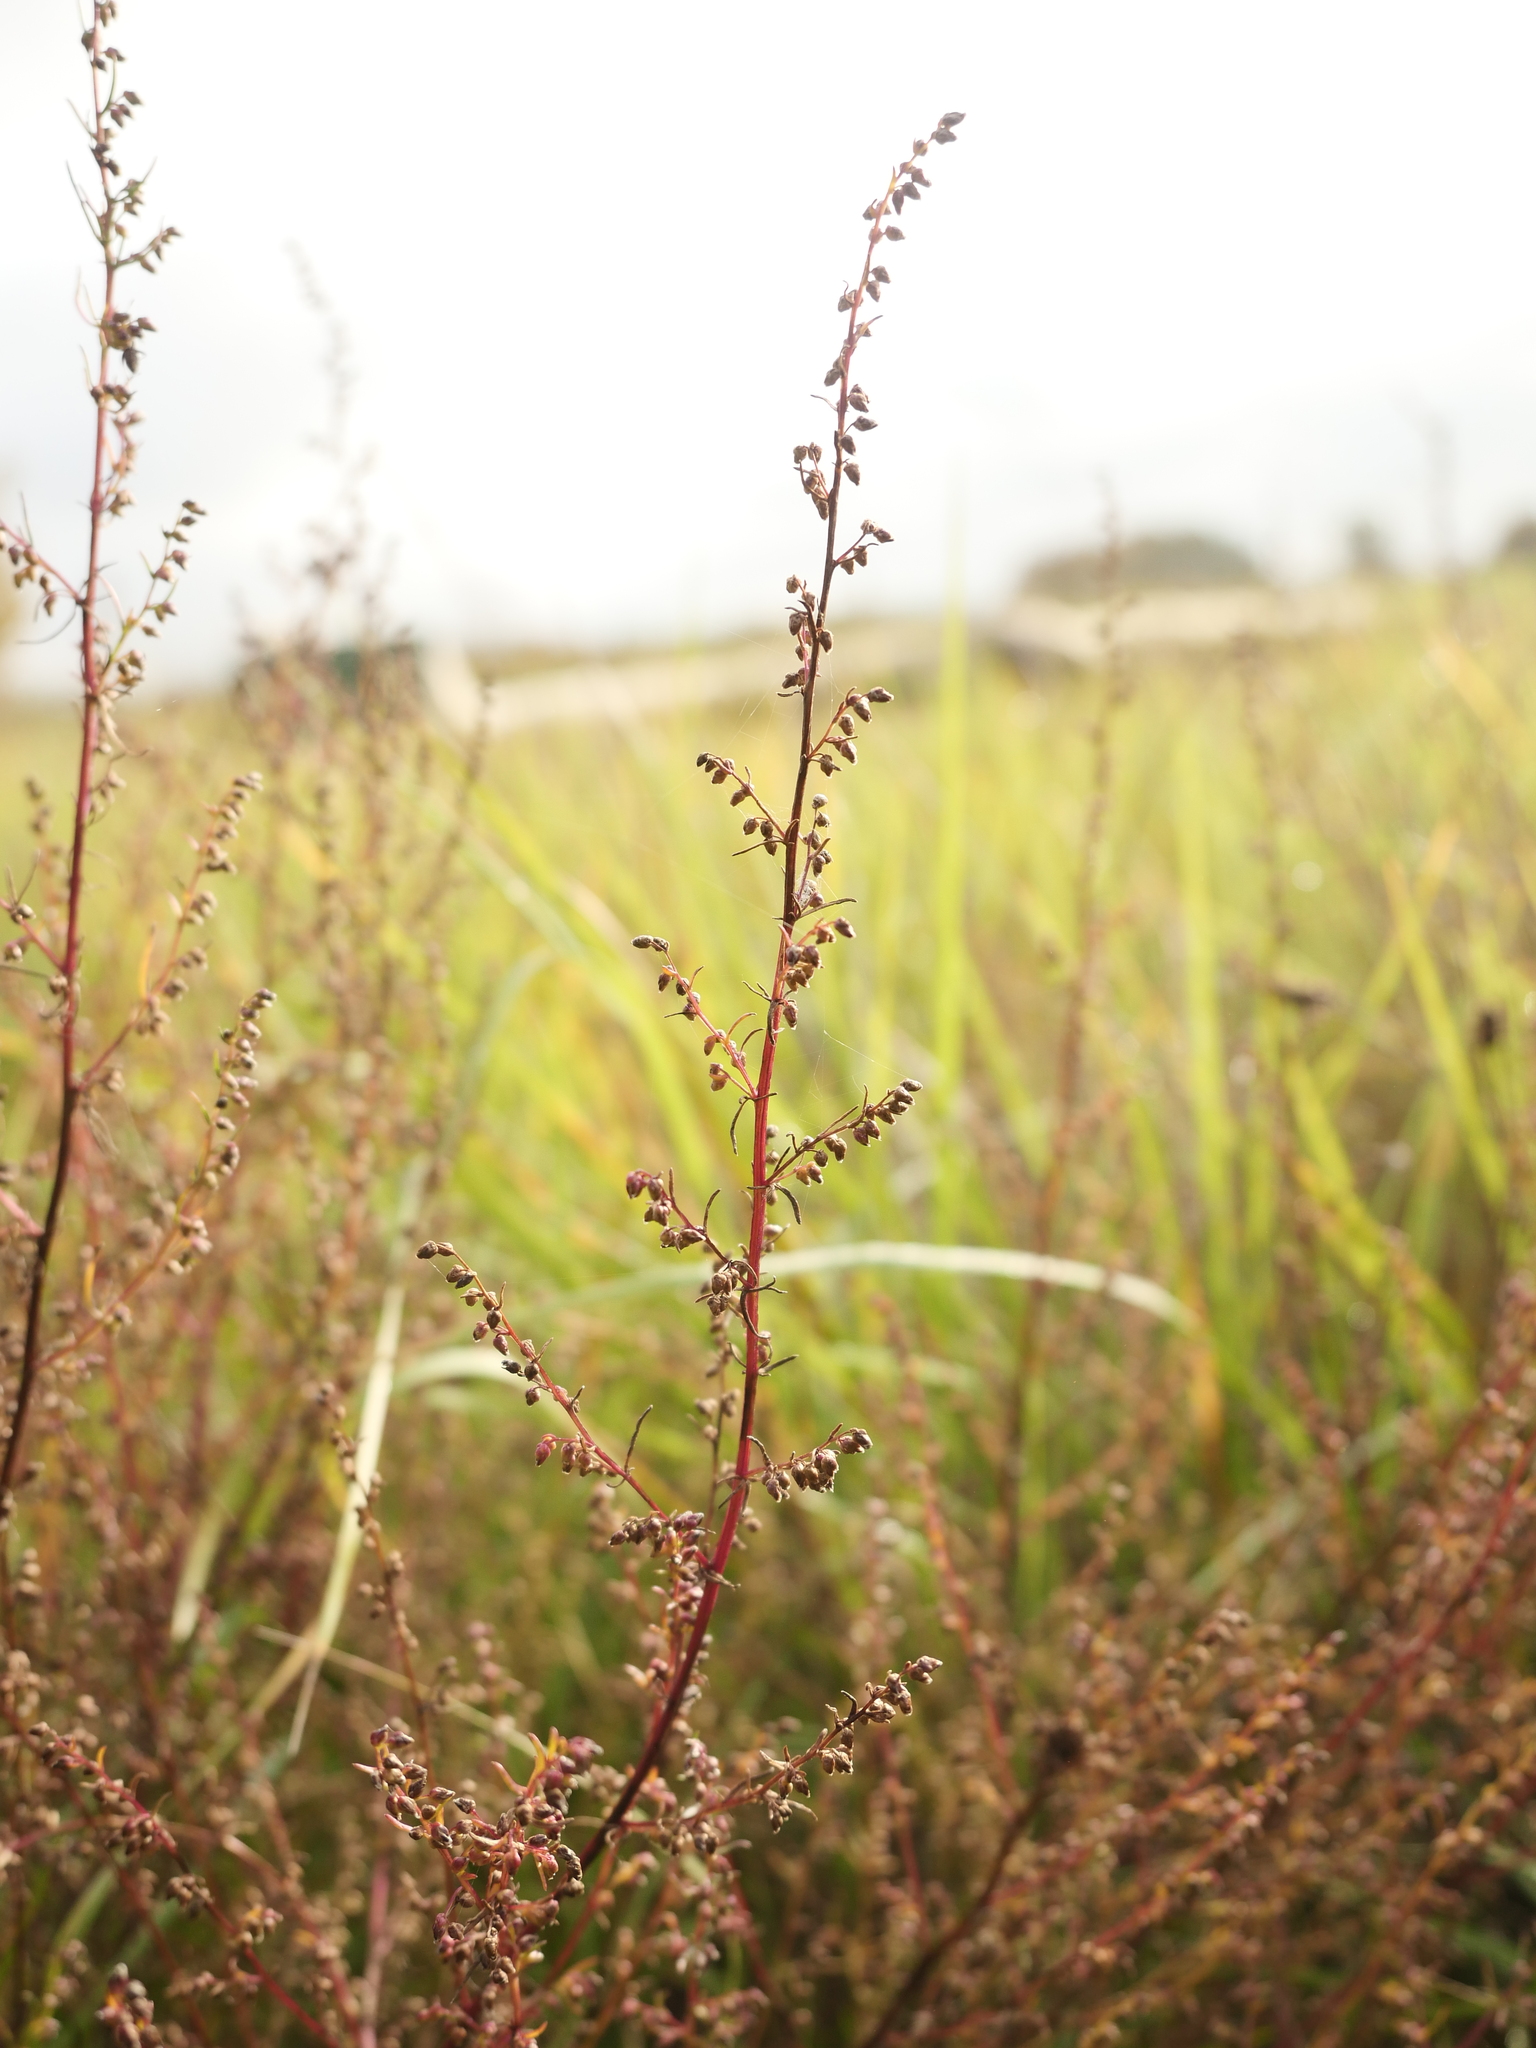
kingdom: Plantae
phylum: Tracheophyta
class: Magnoliopsida
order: Asterales
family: Asteraceae
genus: Artemisia
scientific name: Artemisia campestris
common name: Field wormwood
